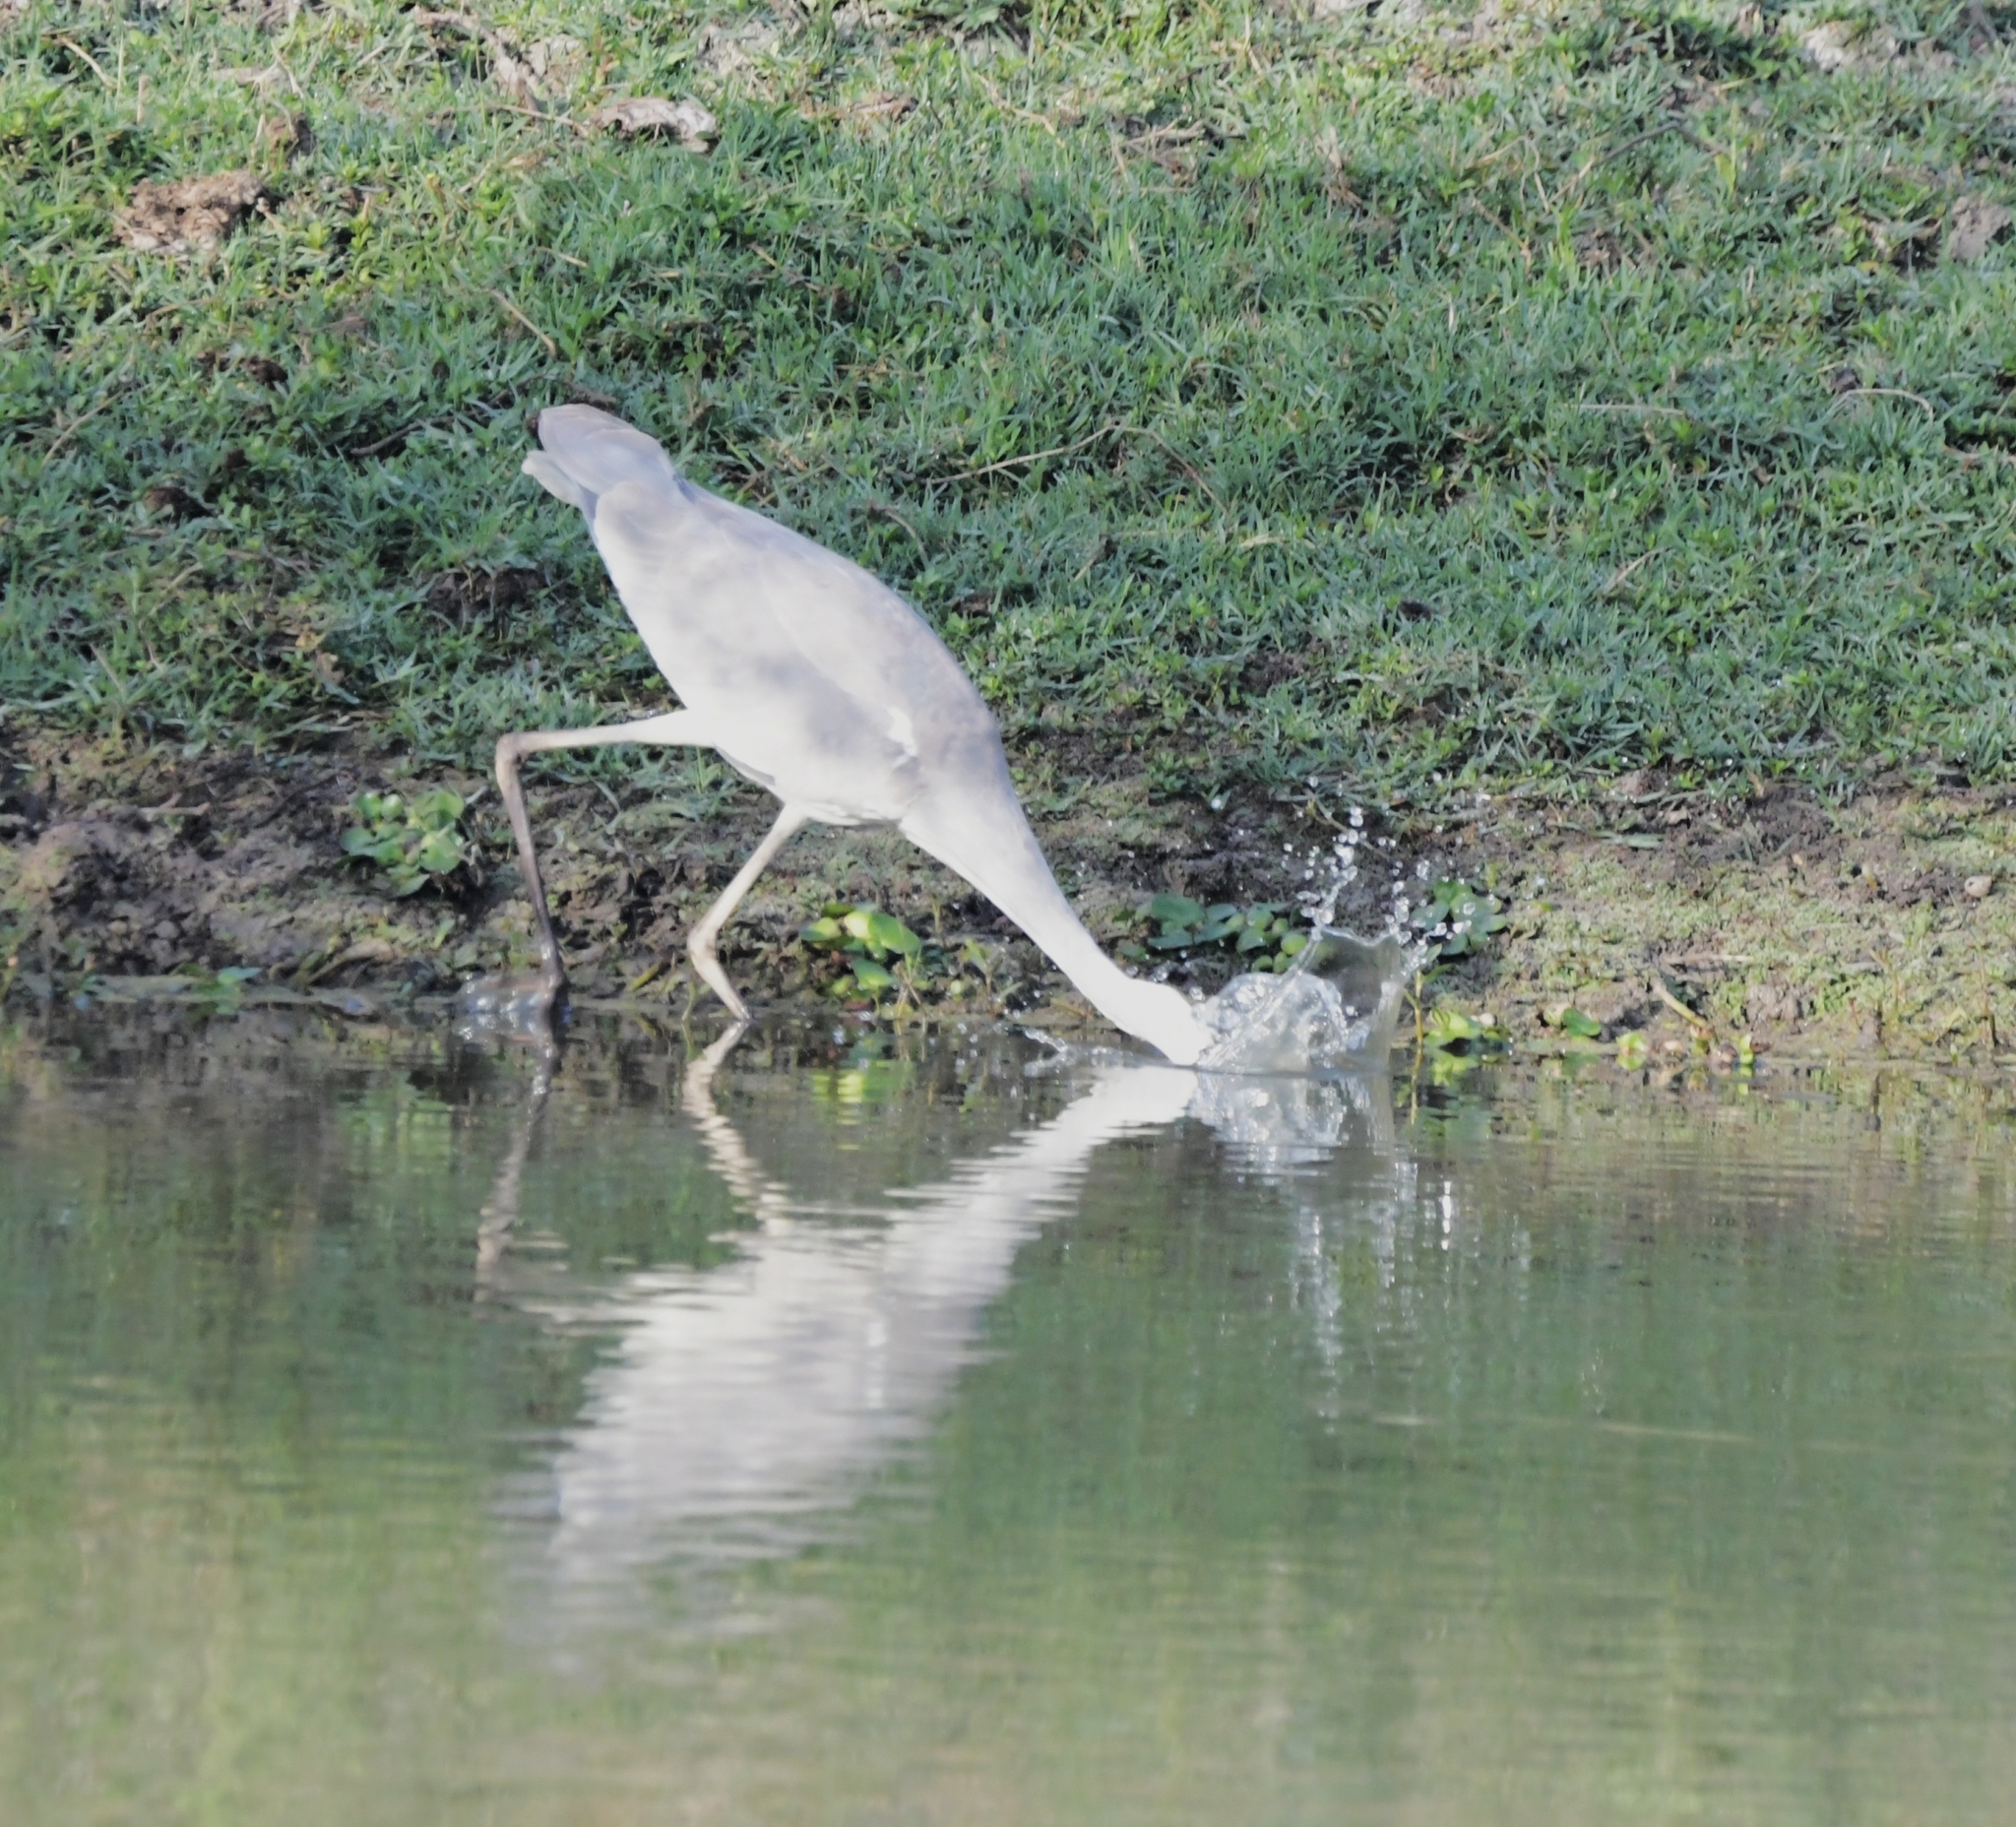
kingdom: Animalia
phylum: Chordata
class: Aves
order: Pelecaniformes
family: Ardeidae
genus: Ardea
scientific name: Ardea cinerea
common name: Grey heron
